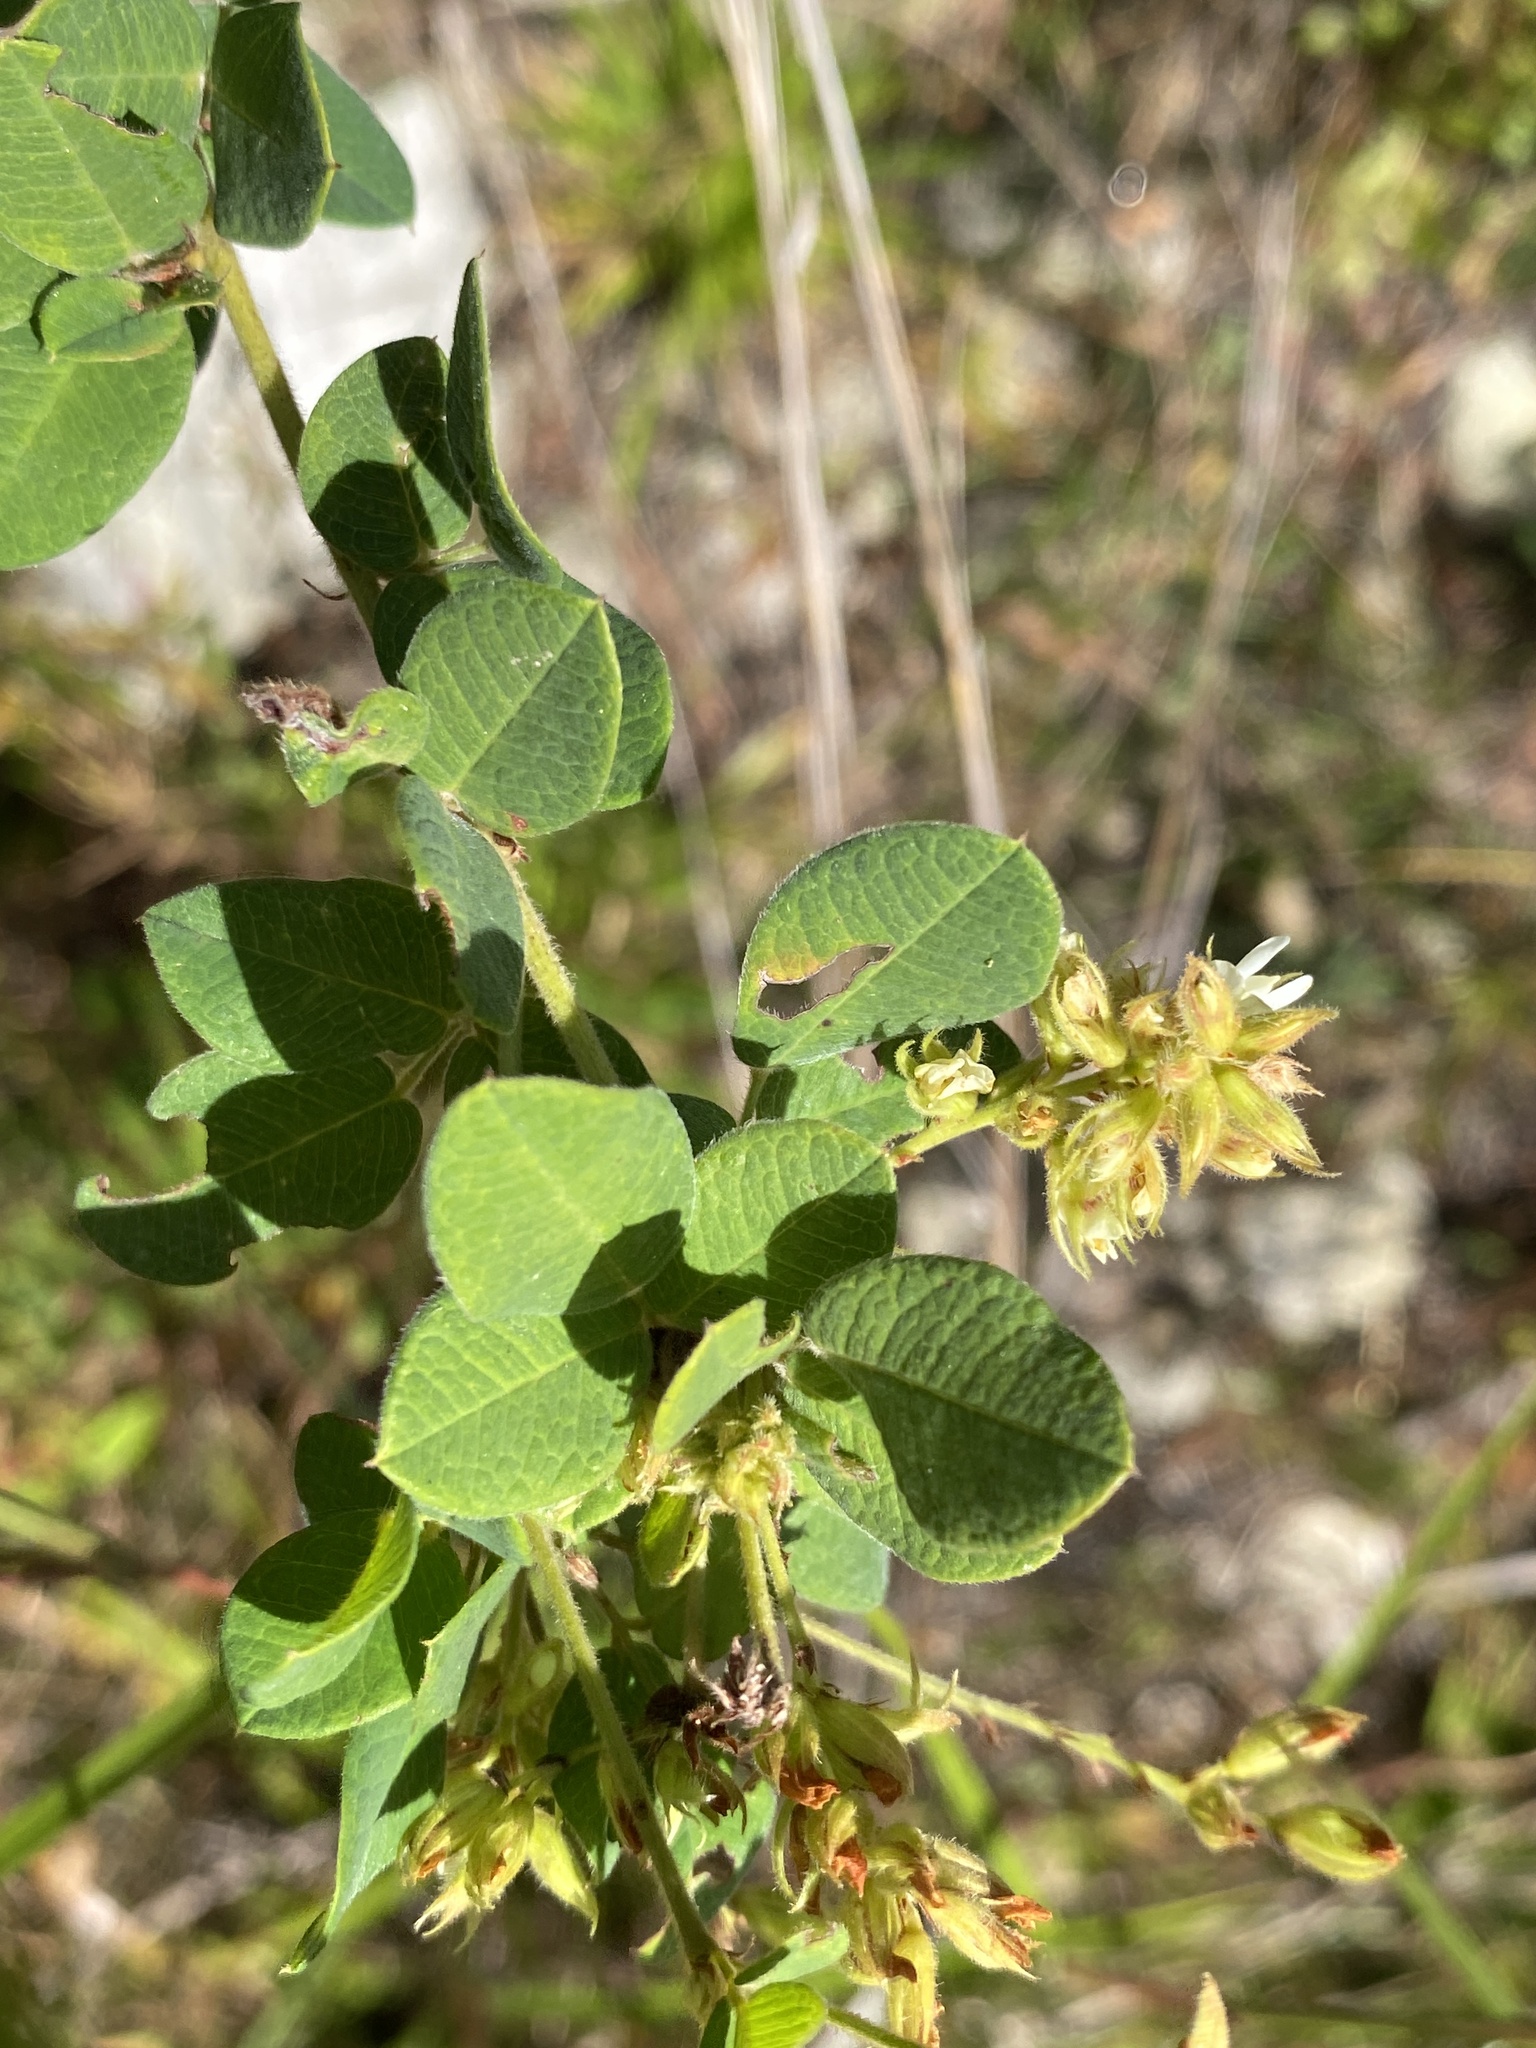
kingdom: Plantae
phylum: Tracheophyta
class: Magnoliopsida
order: Fabales
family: Fabaceae
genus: Lespedeza
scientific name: Lespedeza hirta
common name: Hairy lespedeza
